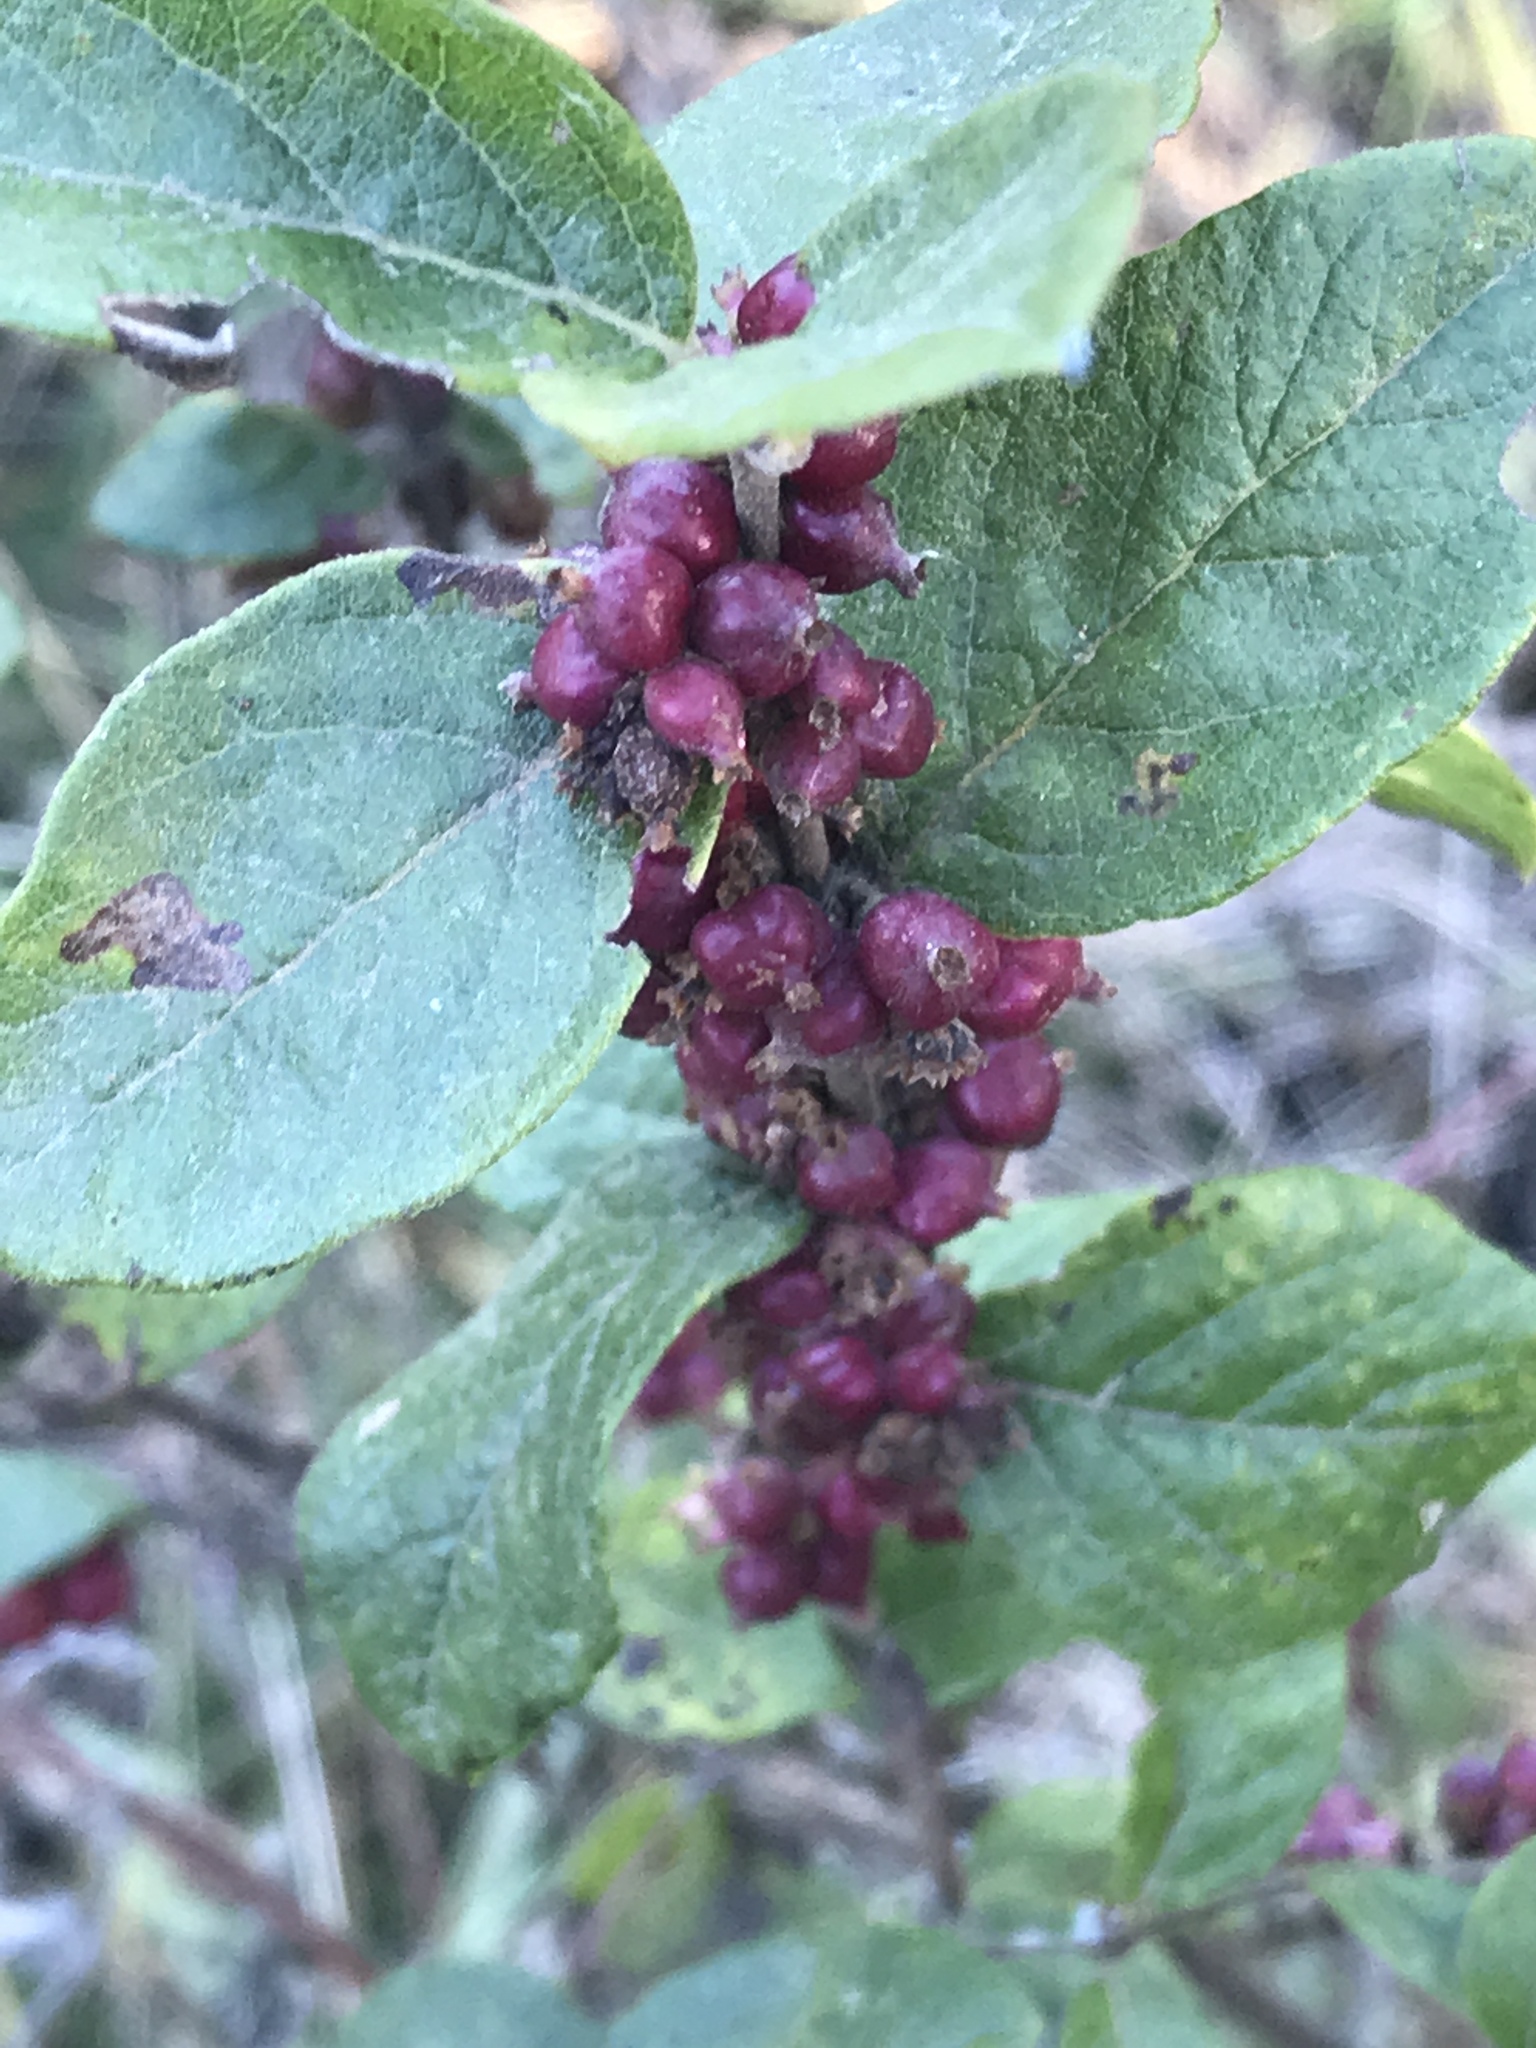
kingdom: Plantae
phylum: Tracheophyta
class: Magnoliopsida
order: Dipsacales
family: Caprifoliaceae
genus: Symphoricarpos
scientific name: Symphoricarpos orbiculatus
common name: Coralberry
